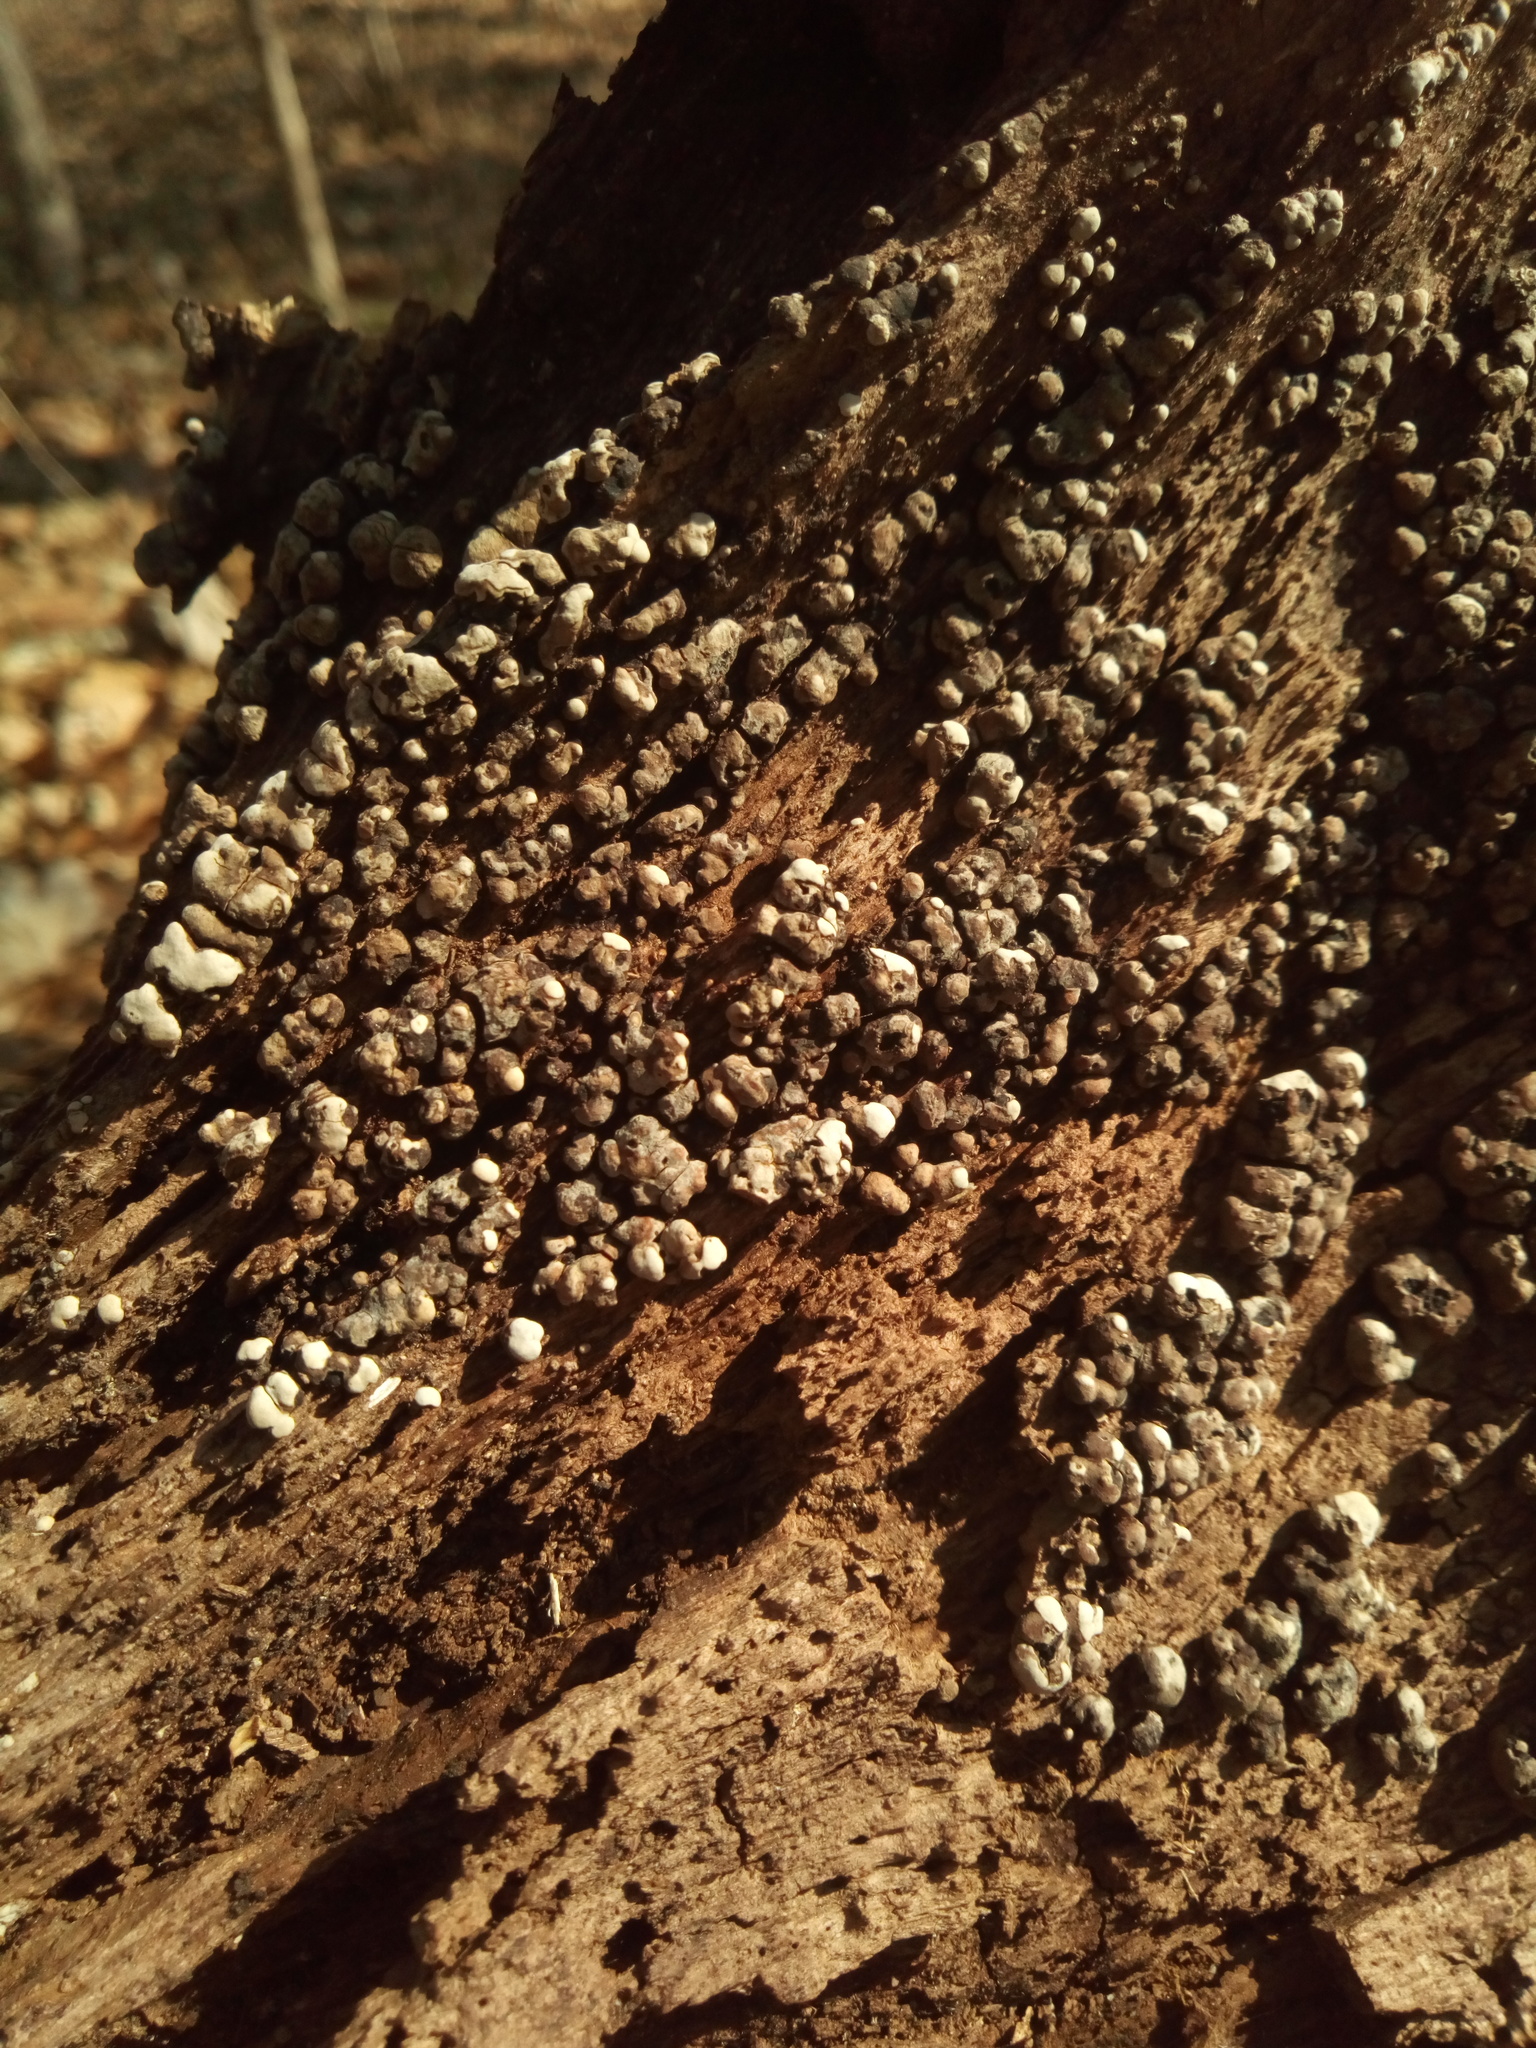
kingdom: Fungi
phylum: Basidiomycota
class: Agaricomycetes
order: Russulales
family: Stereaceae
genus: Xylobolus
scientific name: Xylobolus frustulatus
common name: Ceramic parchment
